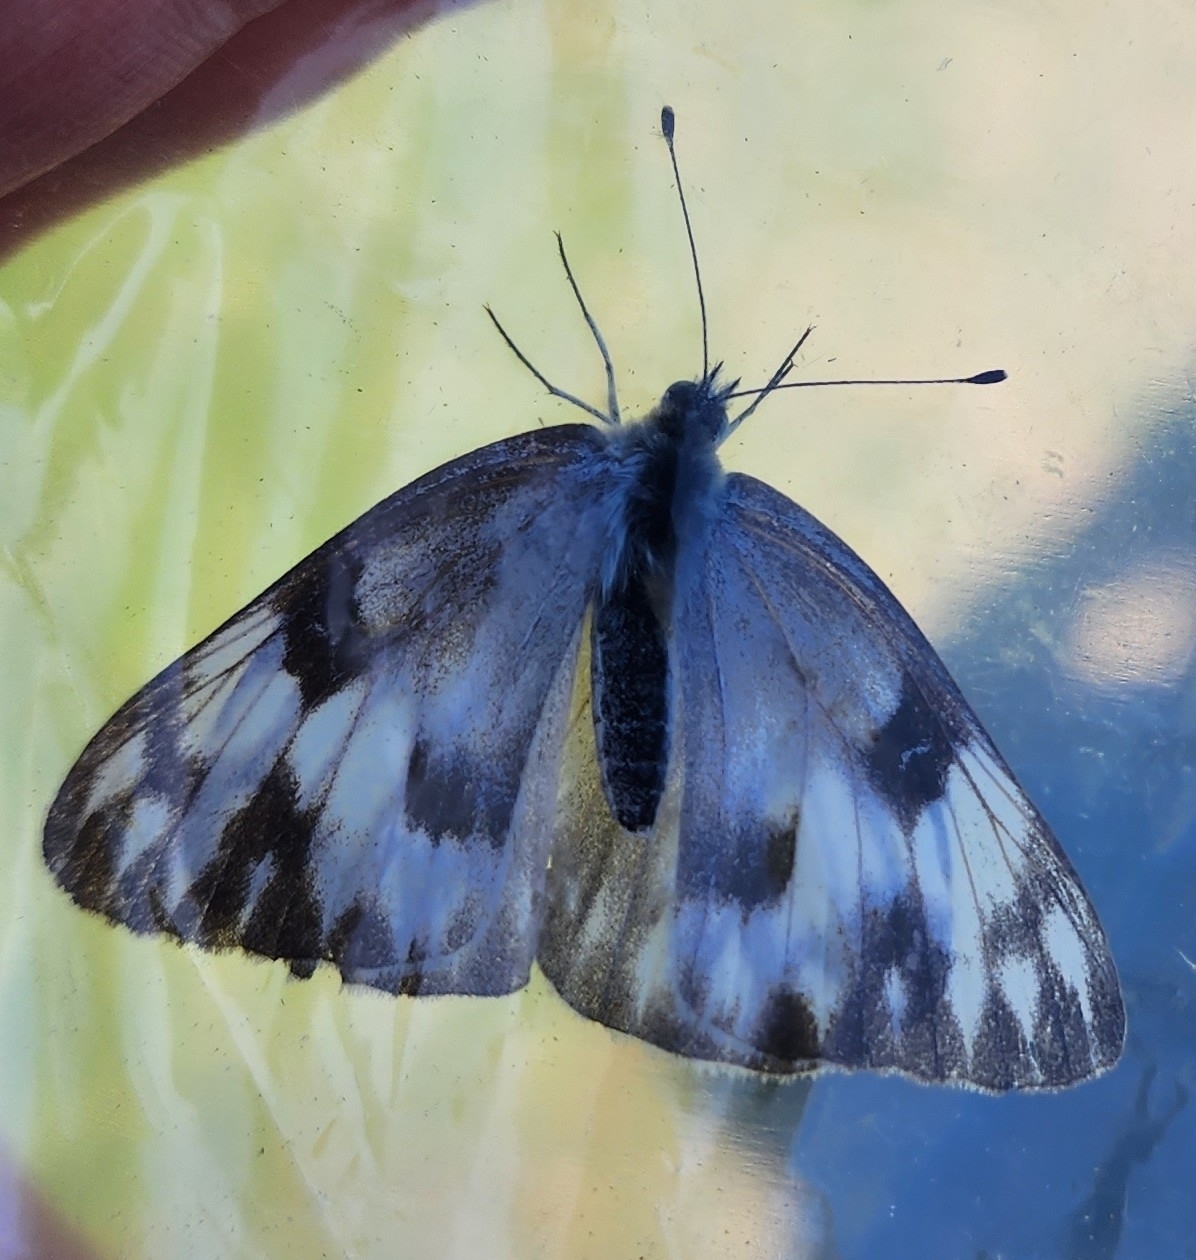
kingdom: Animalia
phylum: Arthropoda
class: Insecta
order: Lepidoptera
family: Pieridae
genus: Pontia
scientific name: Pontia protodice
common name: Checkered white
